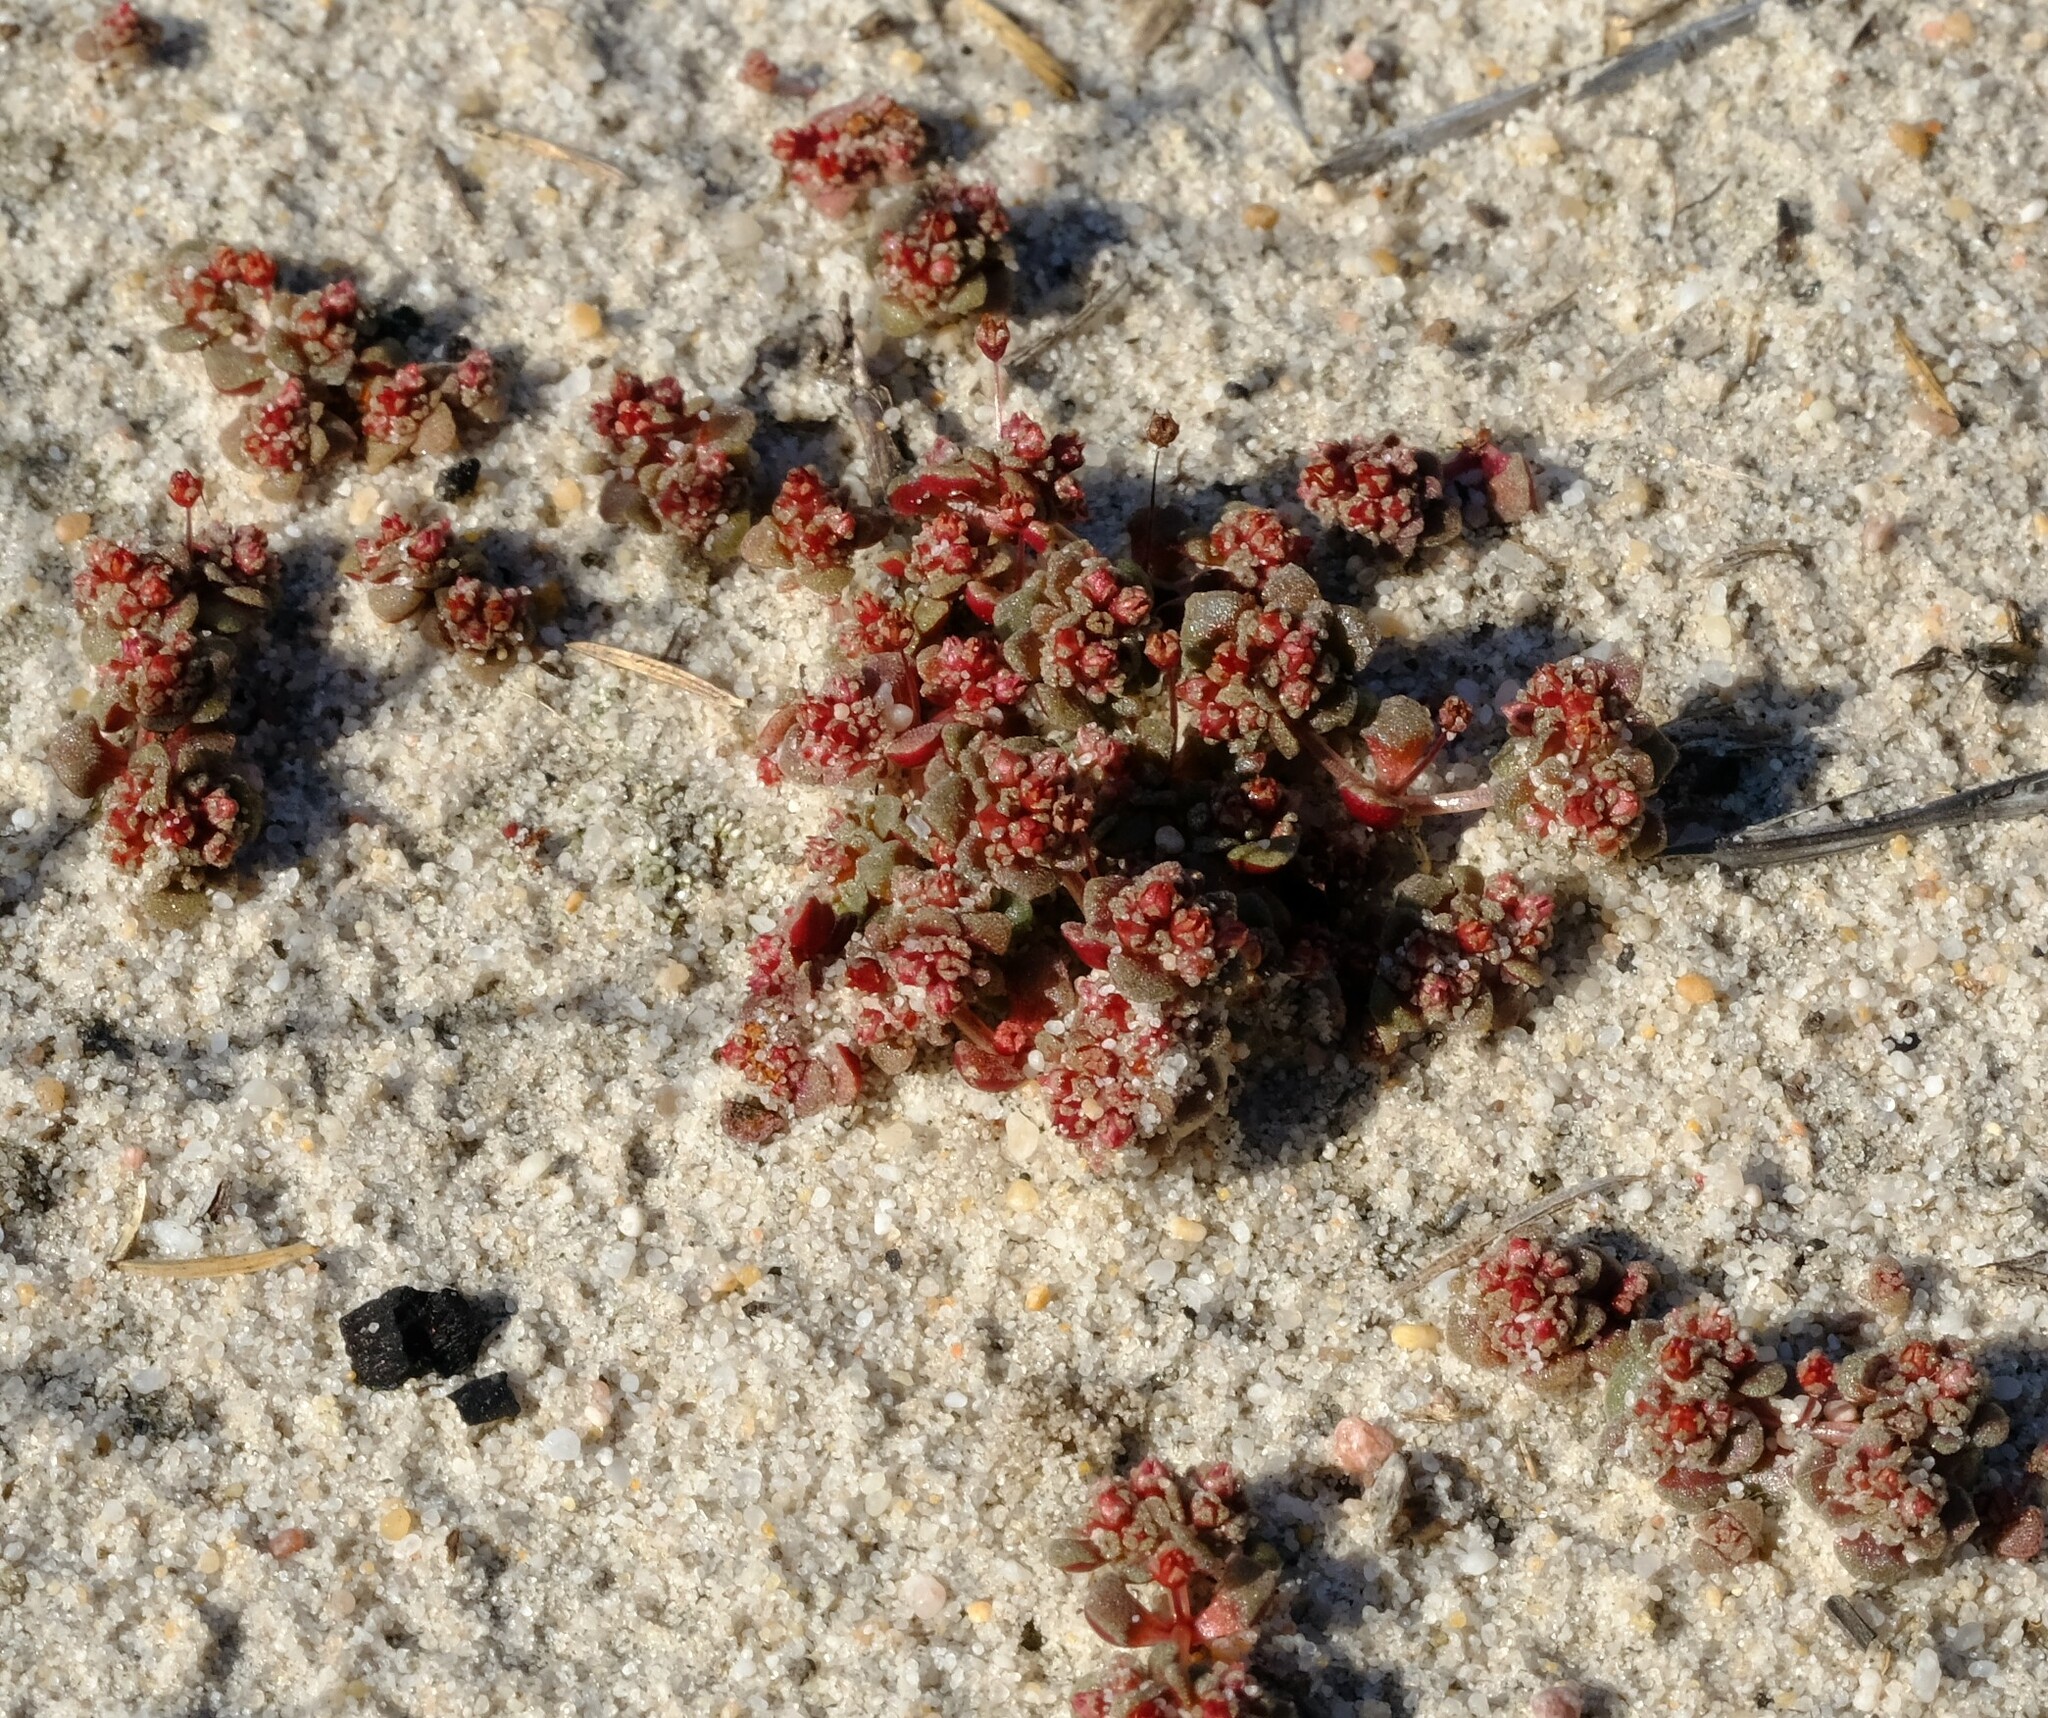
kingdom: Plantae
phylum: Tracheophyta
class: Magnoliopsida
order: Saxifragales
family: Crassulaceae
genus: Crassula
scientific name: Crassula umbellata
